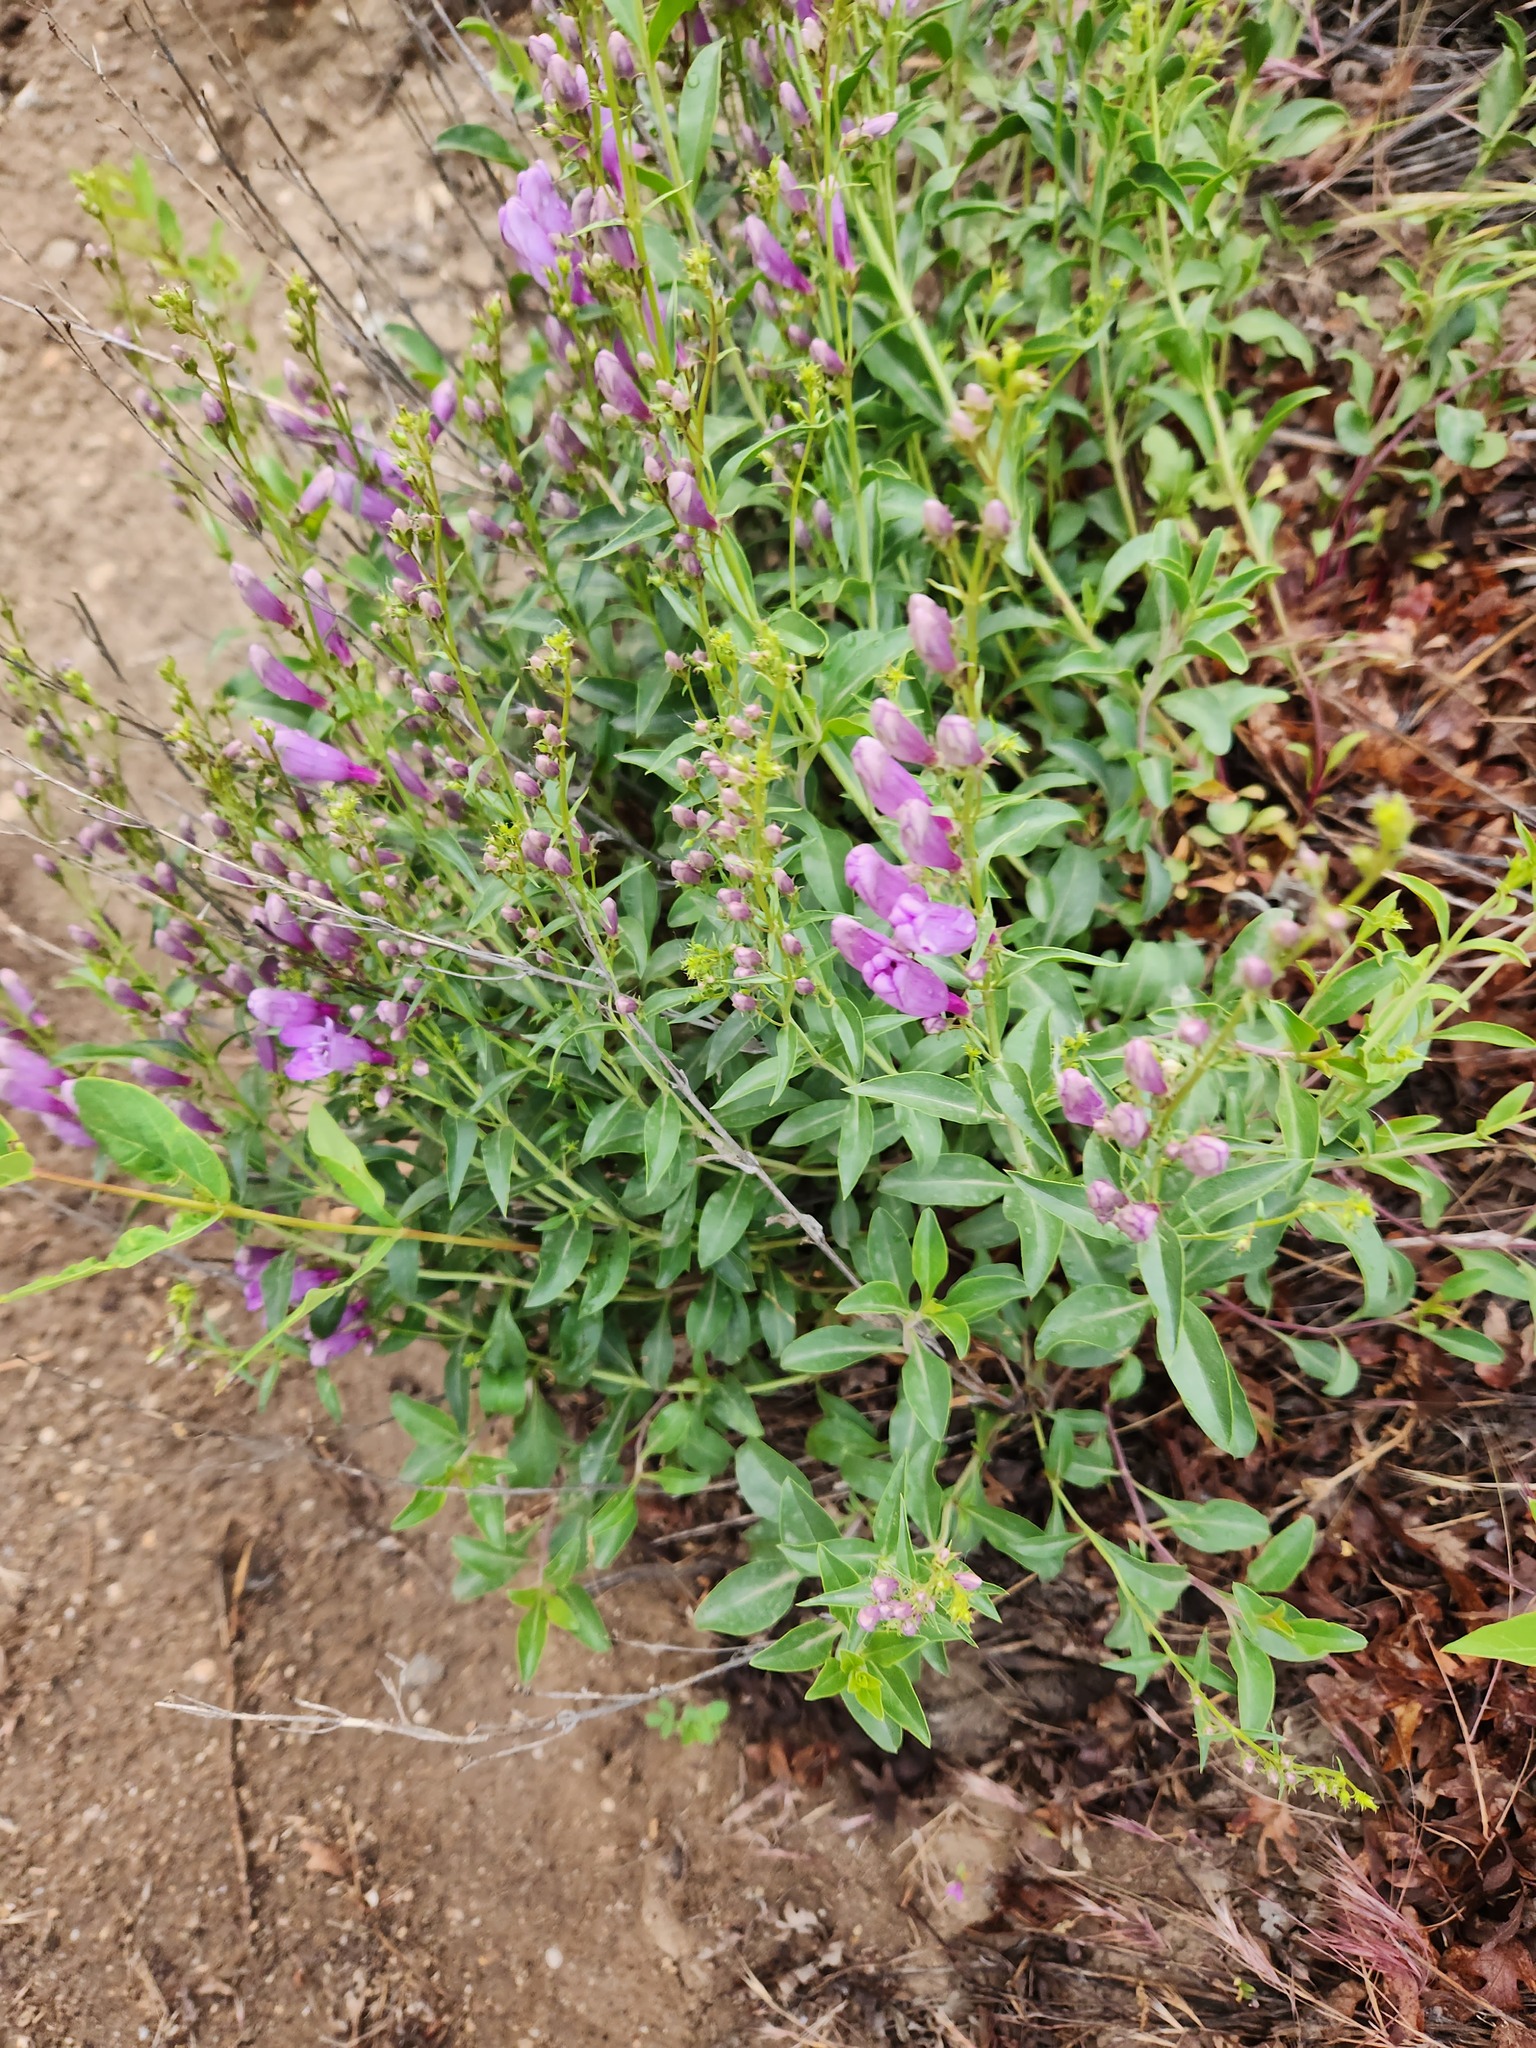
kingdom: Plantae
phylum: Tracheophyta
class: Magnoliopsida
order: Lamiales
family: Plantaginaceae
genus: Penstemon
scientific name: Penstemon platyphyllus
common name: Broadleaf penstemon
